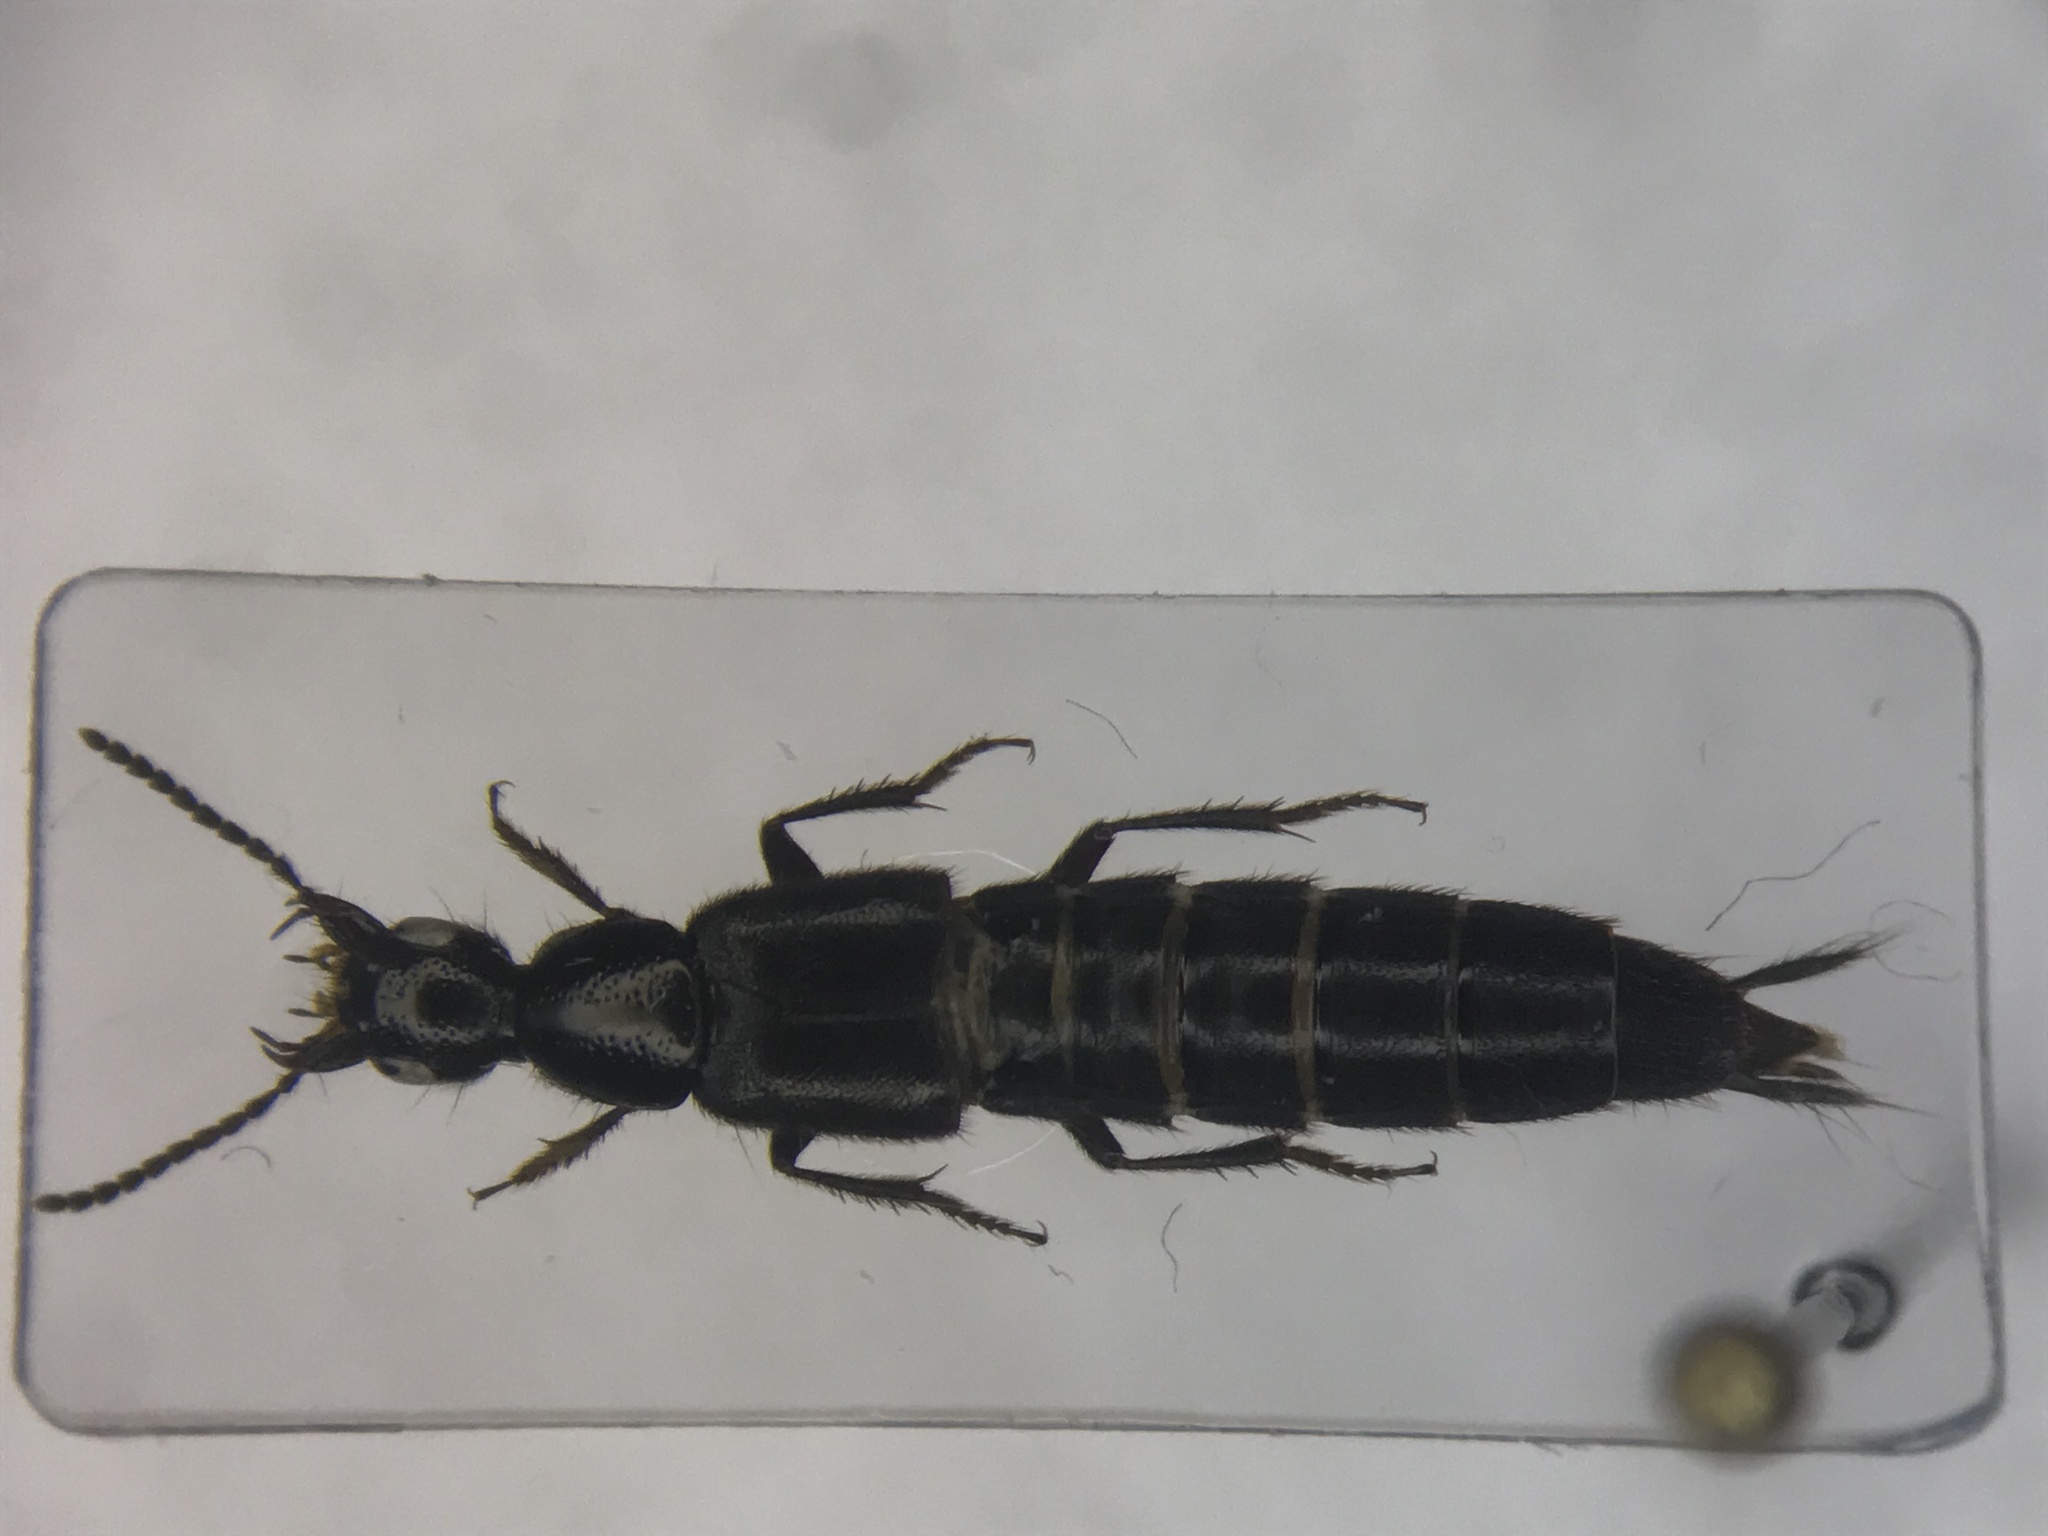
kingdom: Animalia
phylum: Arthropoda
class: Insecta
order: Coleoptera
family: Staphylinidae
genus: Philonthus
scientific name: Philonthus vulgatus
